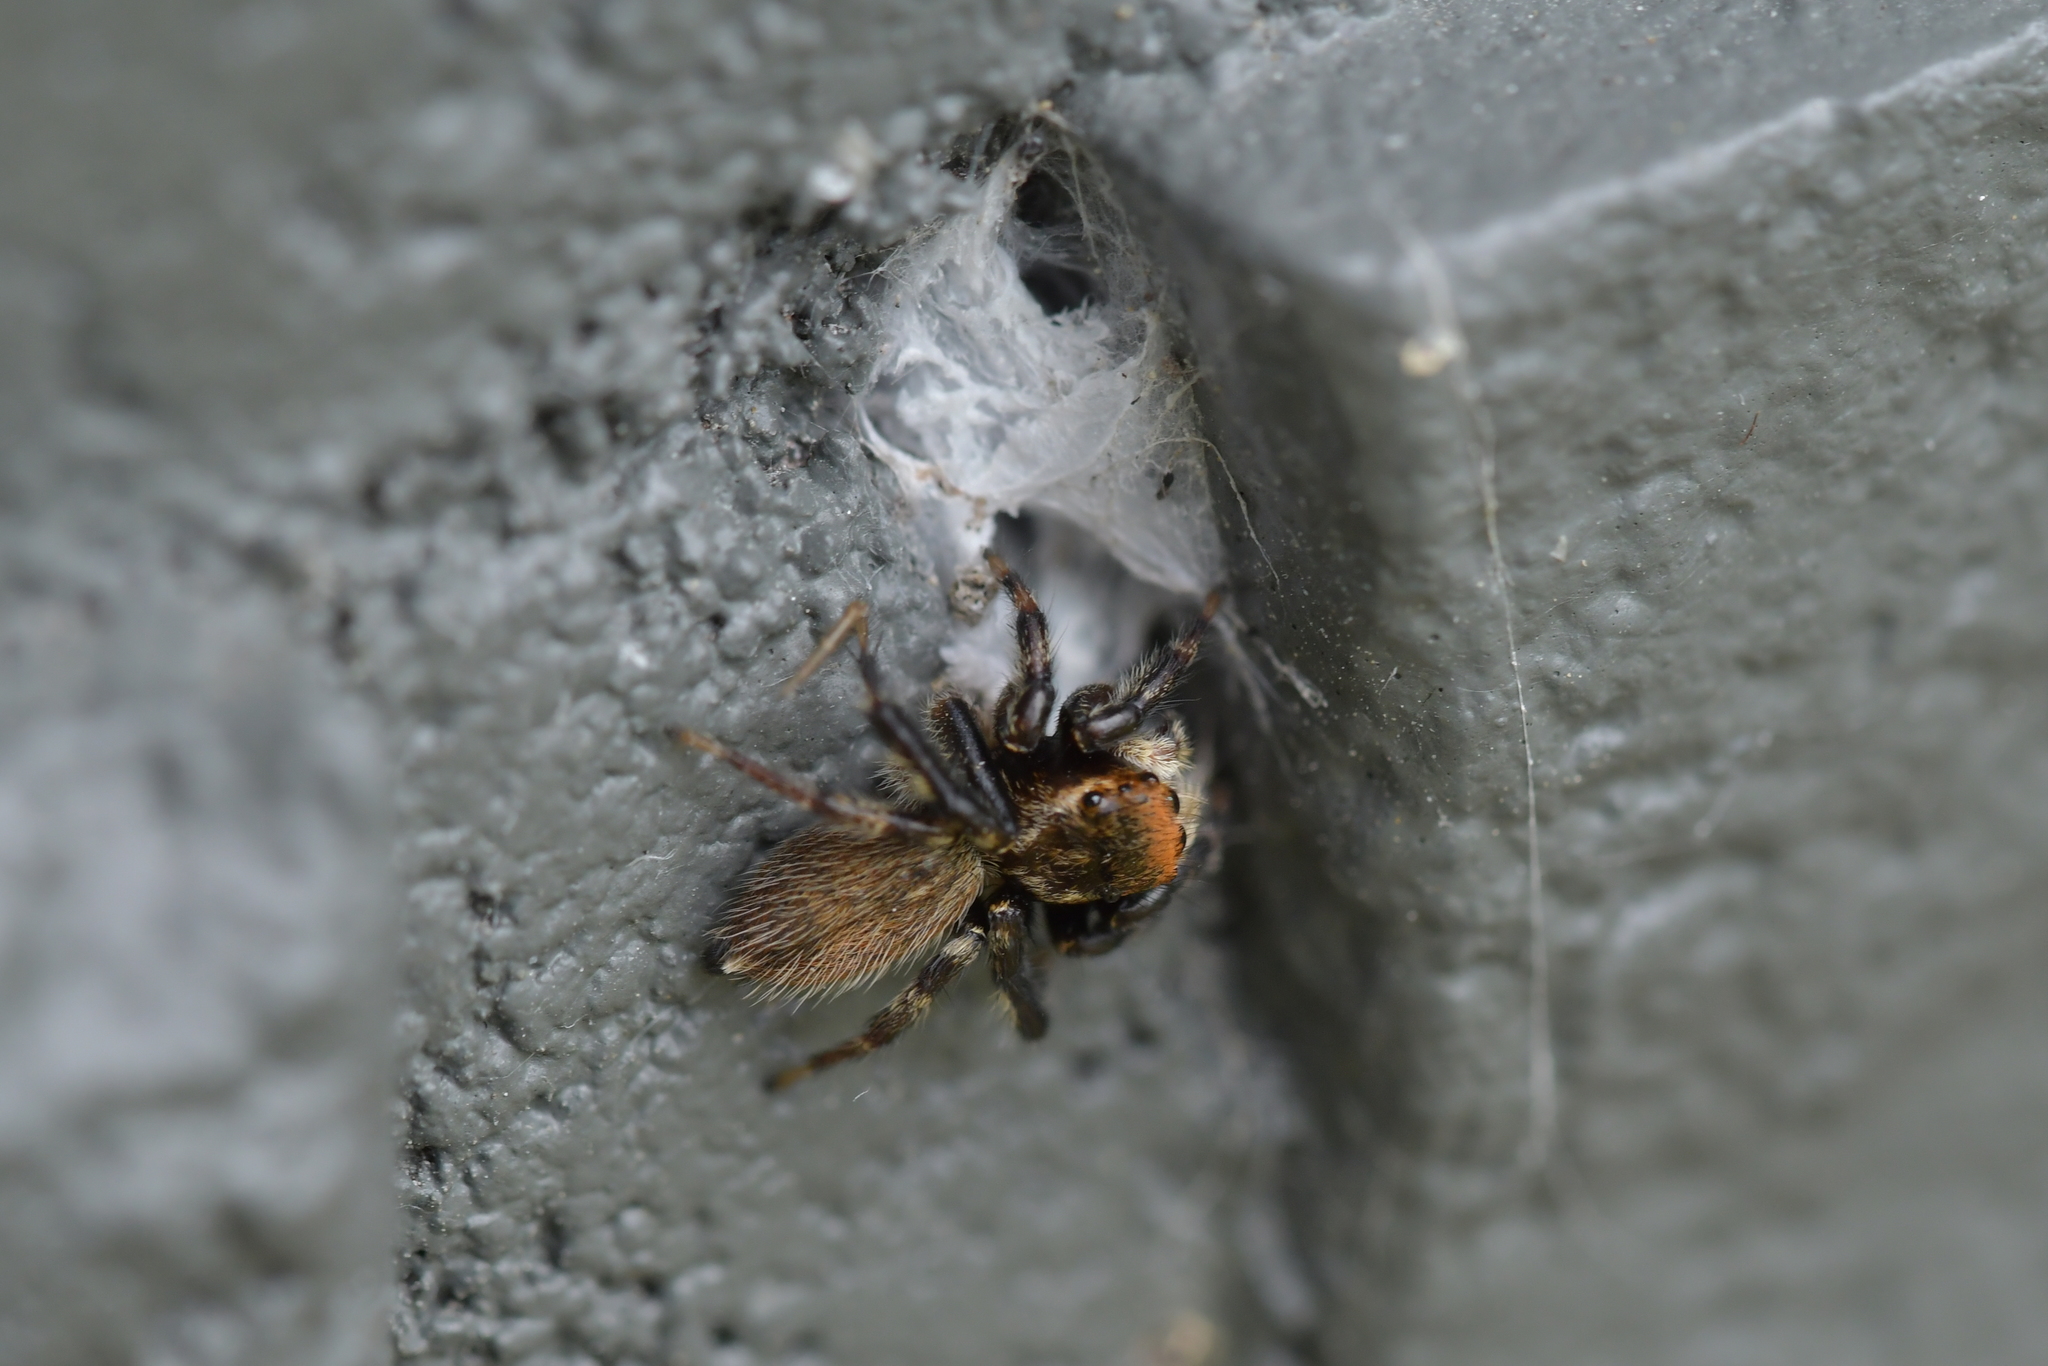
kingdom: Animalia
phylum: Arthropoda
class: Arachnida
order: Araneae
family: Salticidae
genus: Maratus
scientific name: Maratus griseus
